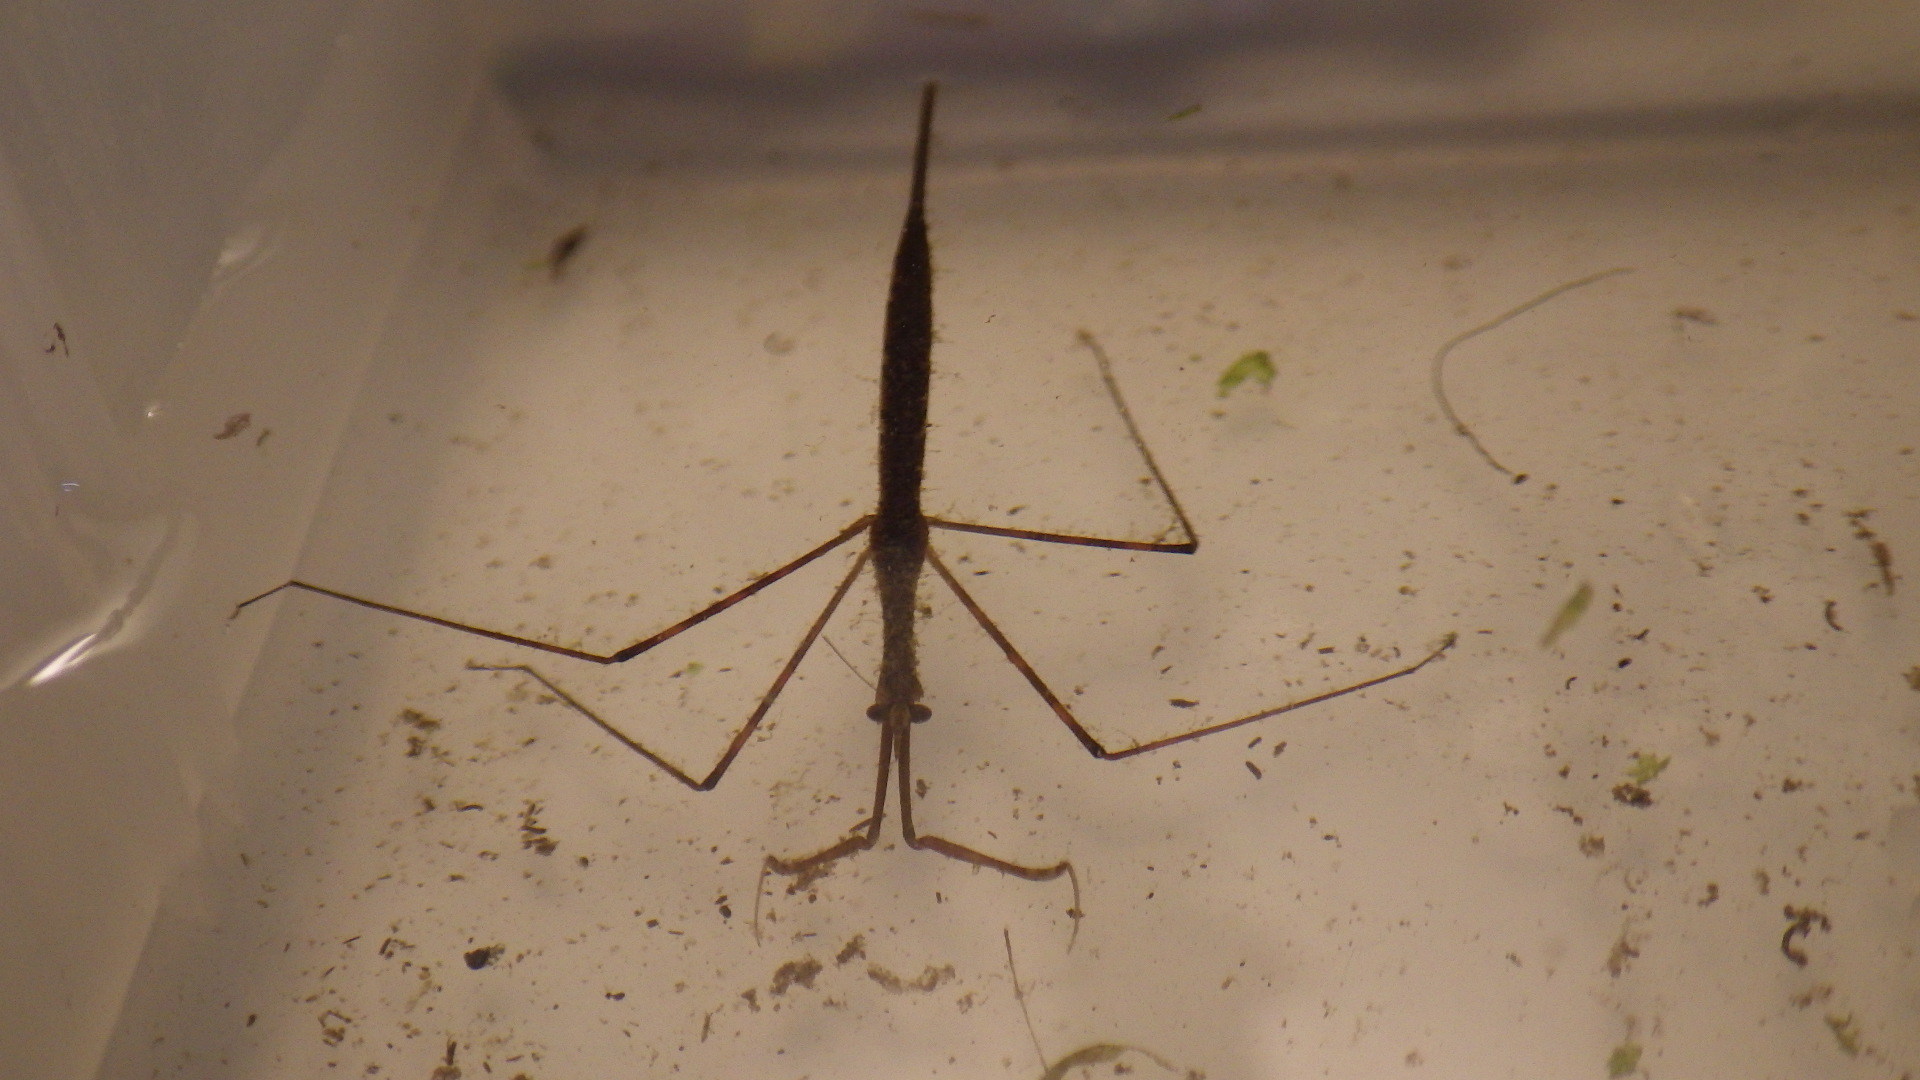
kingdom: Animalia
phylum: Arthropoda
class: Insecta
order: Hemiptera
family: Nepidae
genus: Ranatra
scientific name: Ranatra
